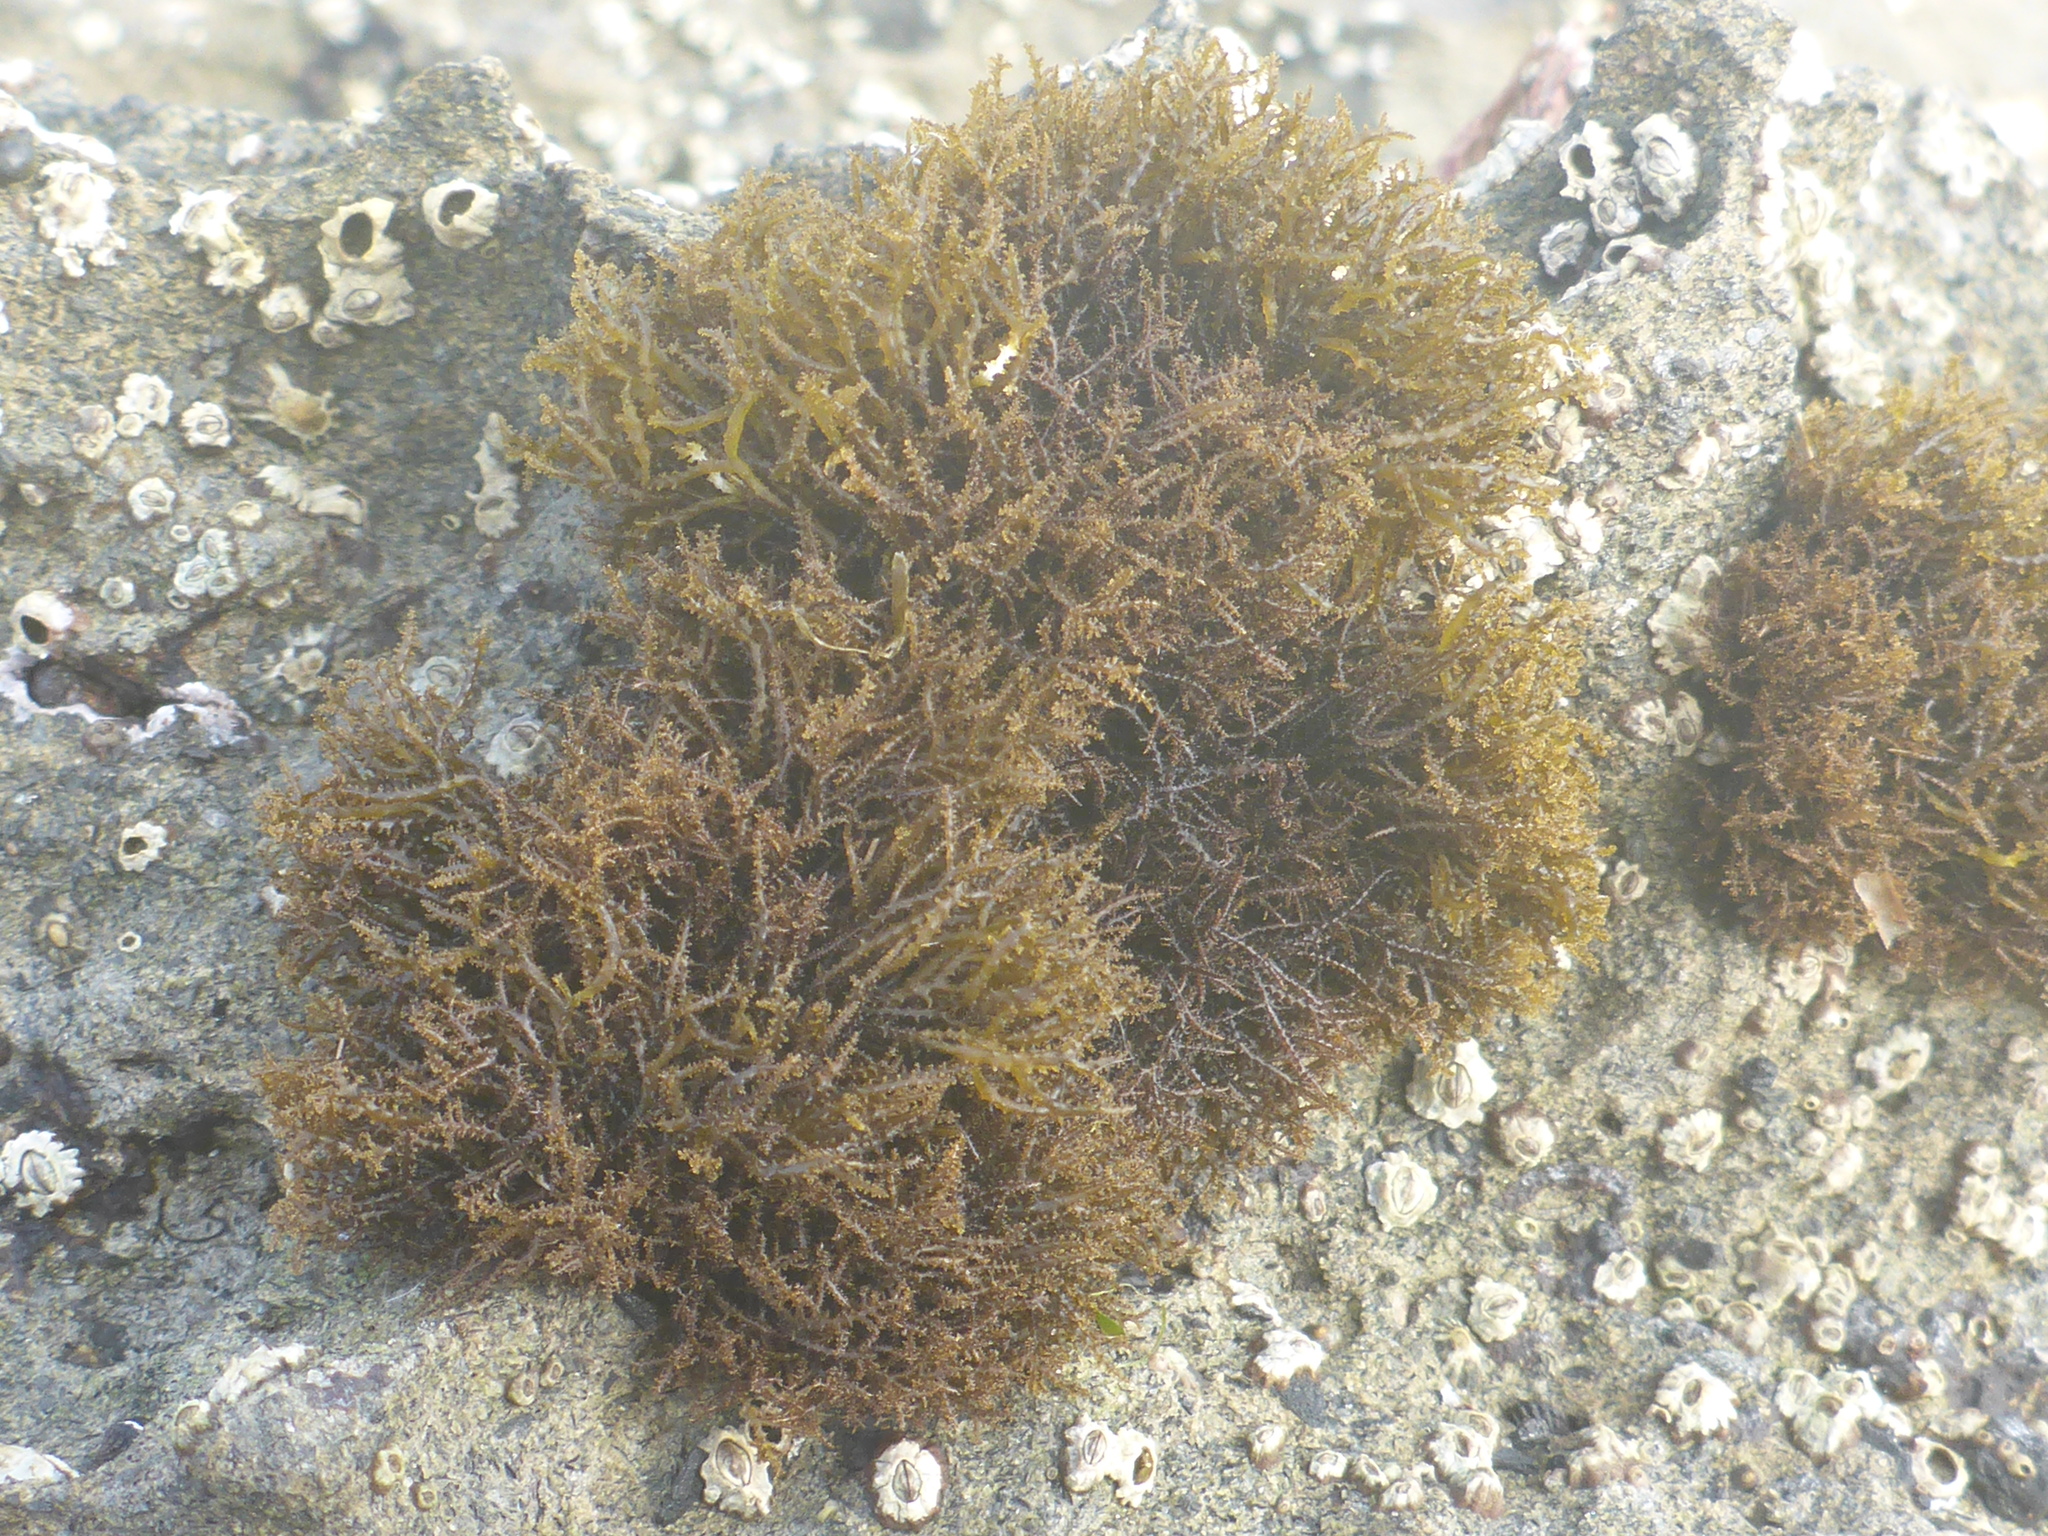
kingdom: Plantae
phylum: Rhodophyta
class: Florideophyceae
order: Gigartinales
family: Endocladiaceae
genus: Endocladia
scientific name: Endocladia muricata
